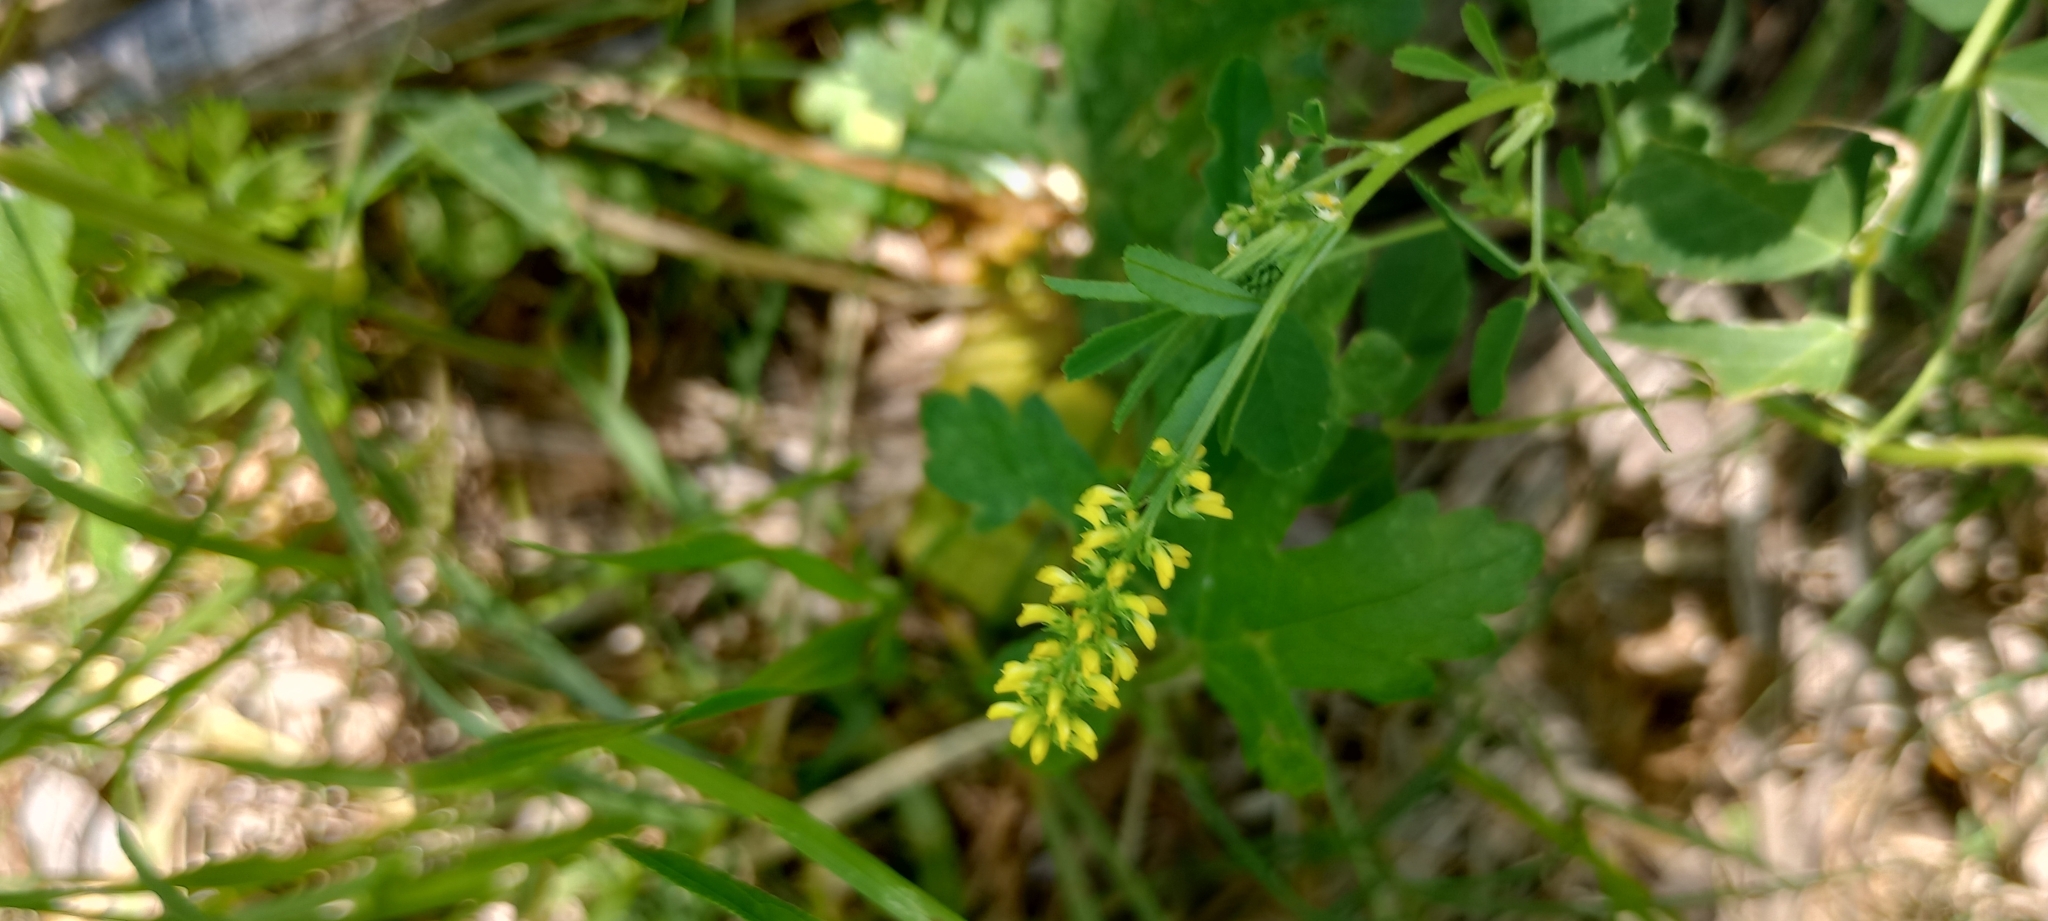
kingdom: Plantae
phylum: Tracheophyta
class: Magnoliopsida
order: Fabales
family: Fabaceae
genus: Melilotus
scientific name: Melilotus indicus
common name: Small melilot
